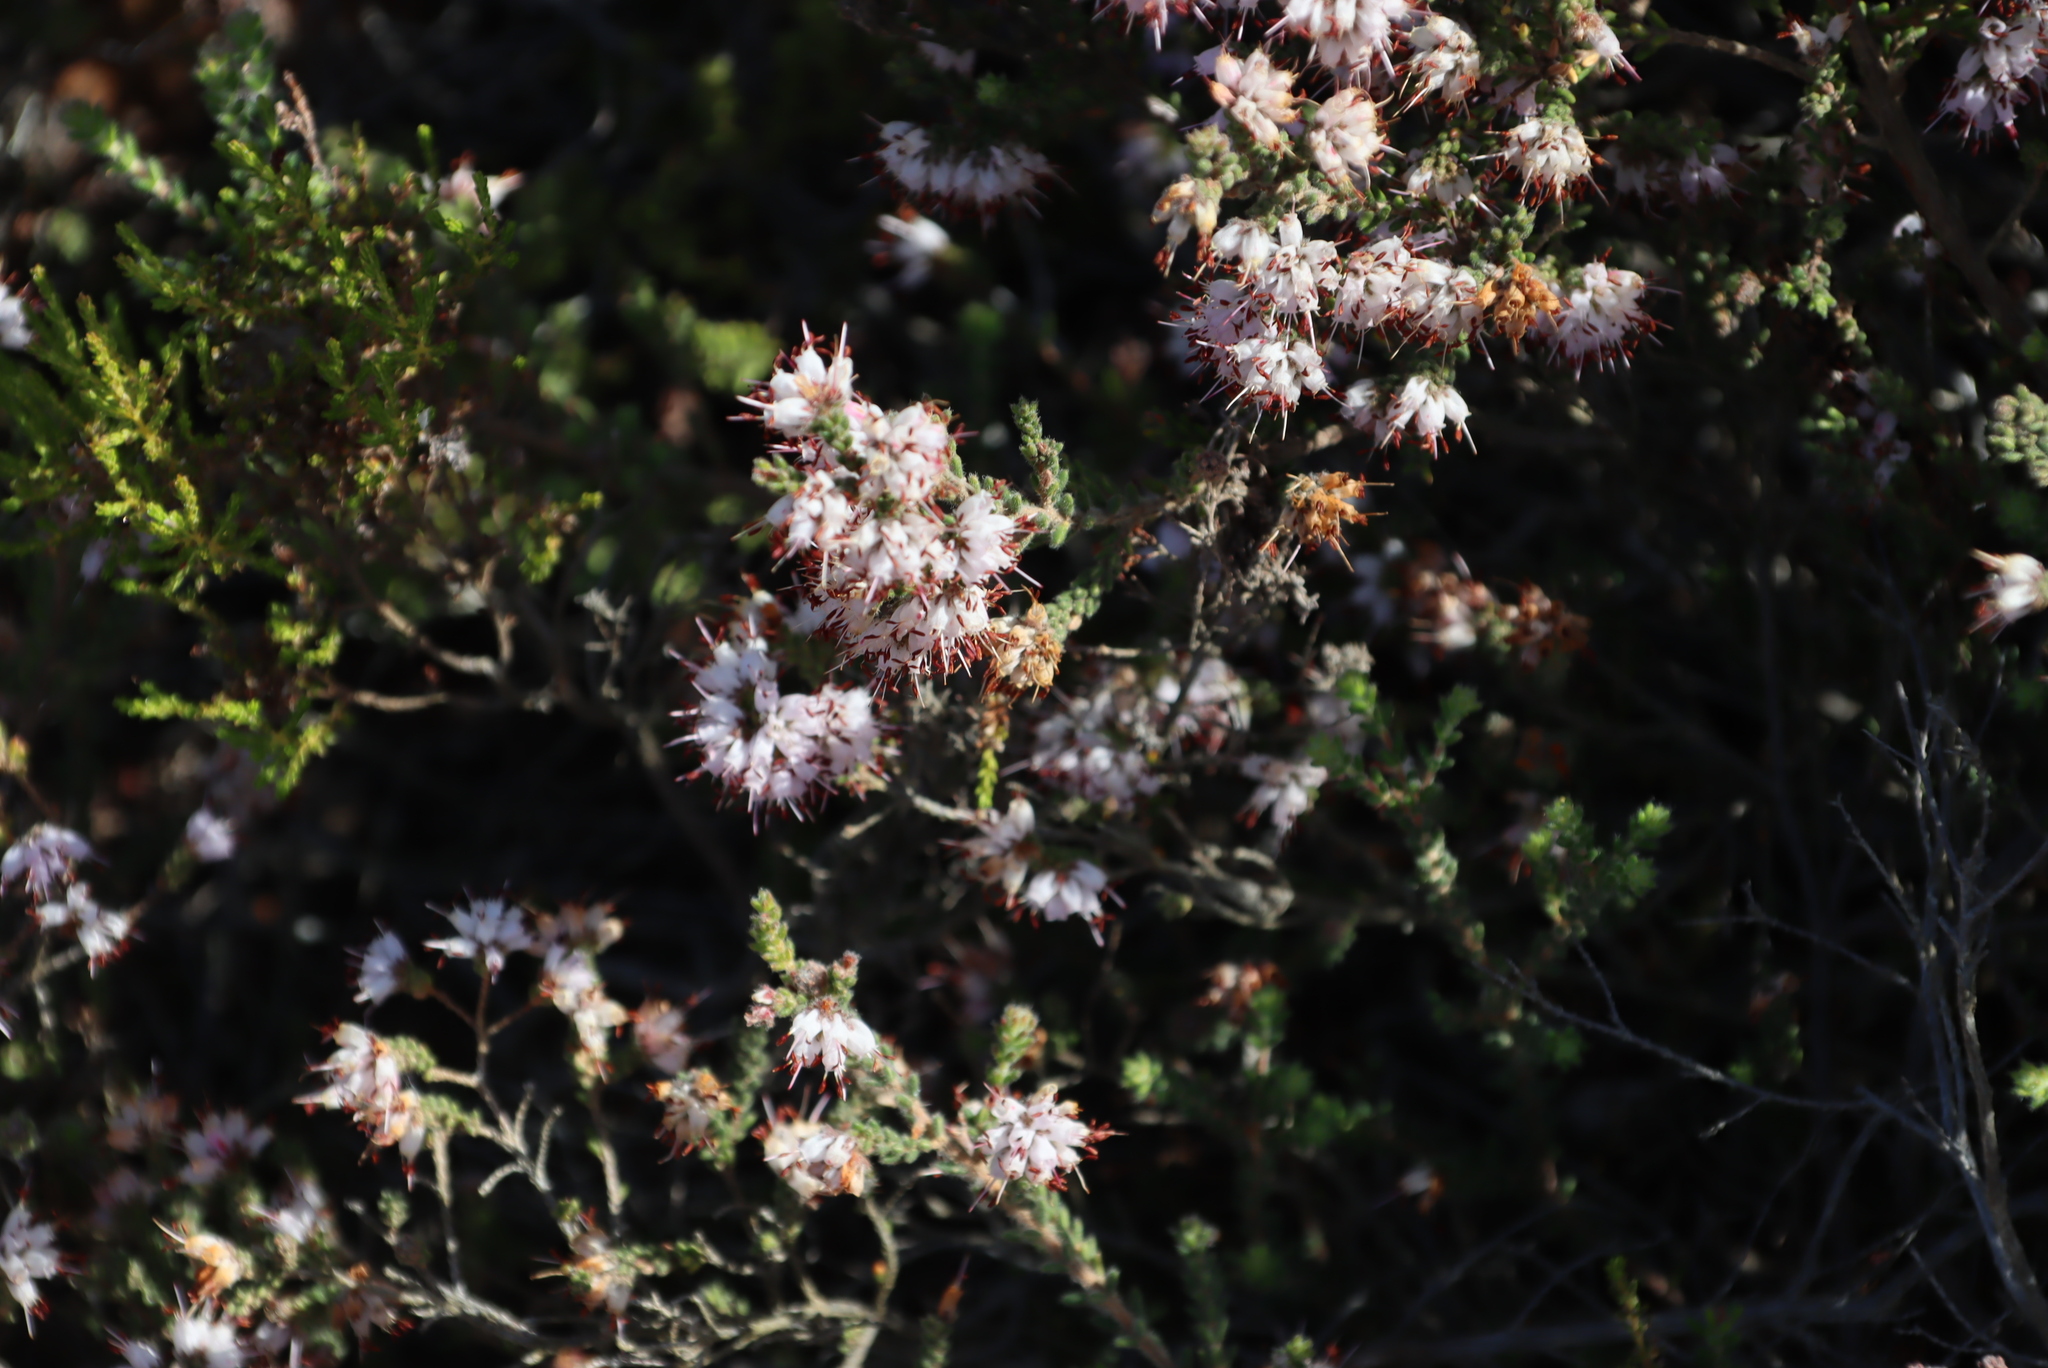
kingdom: Plantae
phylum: Tracheophyta
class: Magnoliopsida
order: Ericales
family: Ericaceae
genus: Erica
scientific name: Erica ericoides
